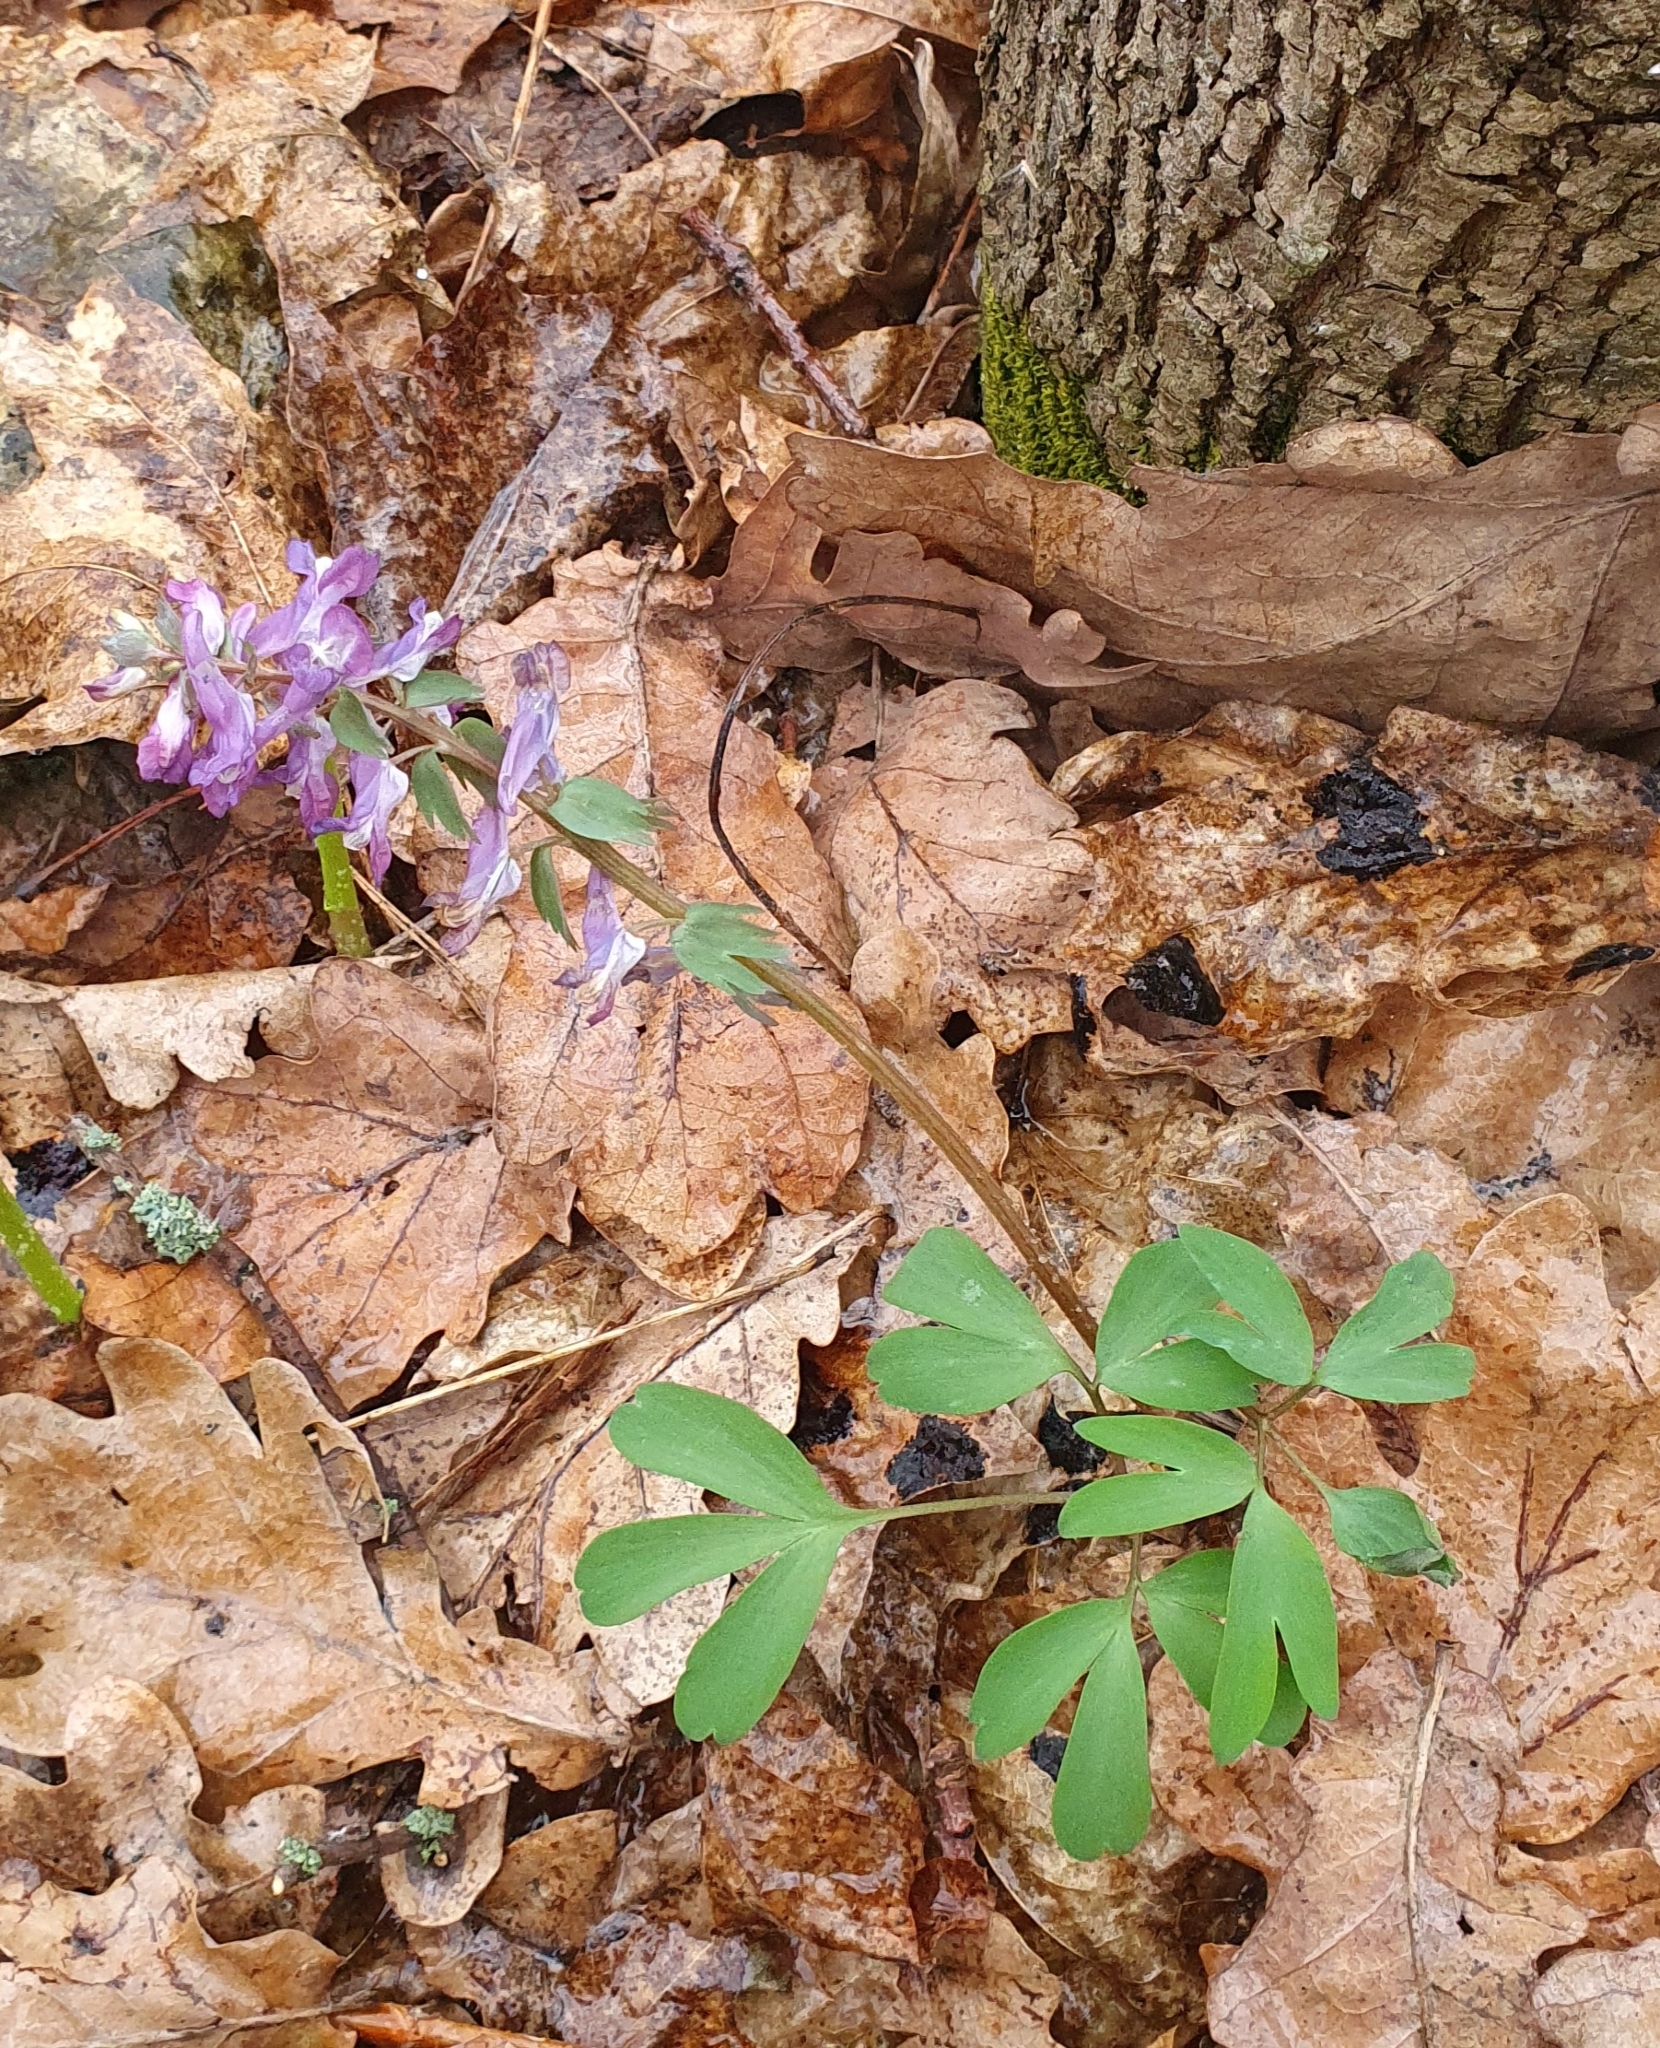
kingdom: Plantae
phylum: Tracheophyta
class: Magnoliopsida
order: Ranunculales
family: Papaveraceae
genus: Corydalis
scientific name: Corydalis solida
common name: Bird-in-a-bush
